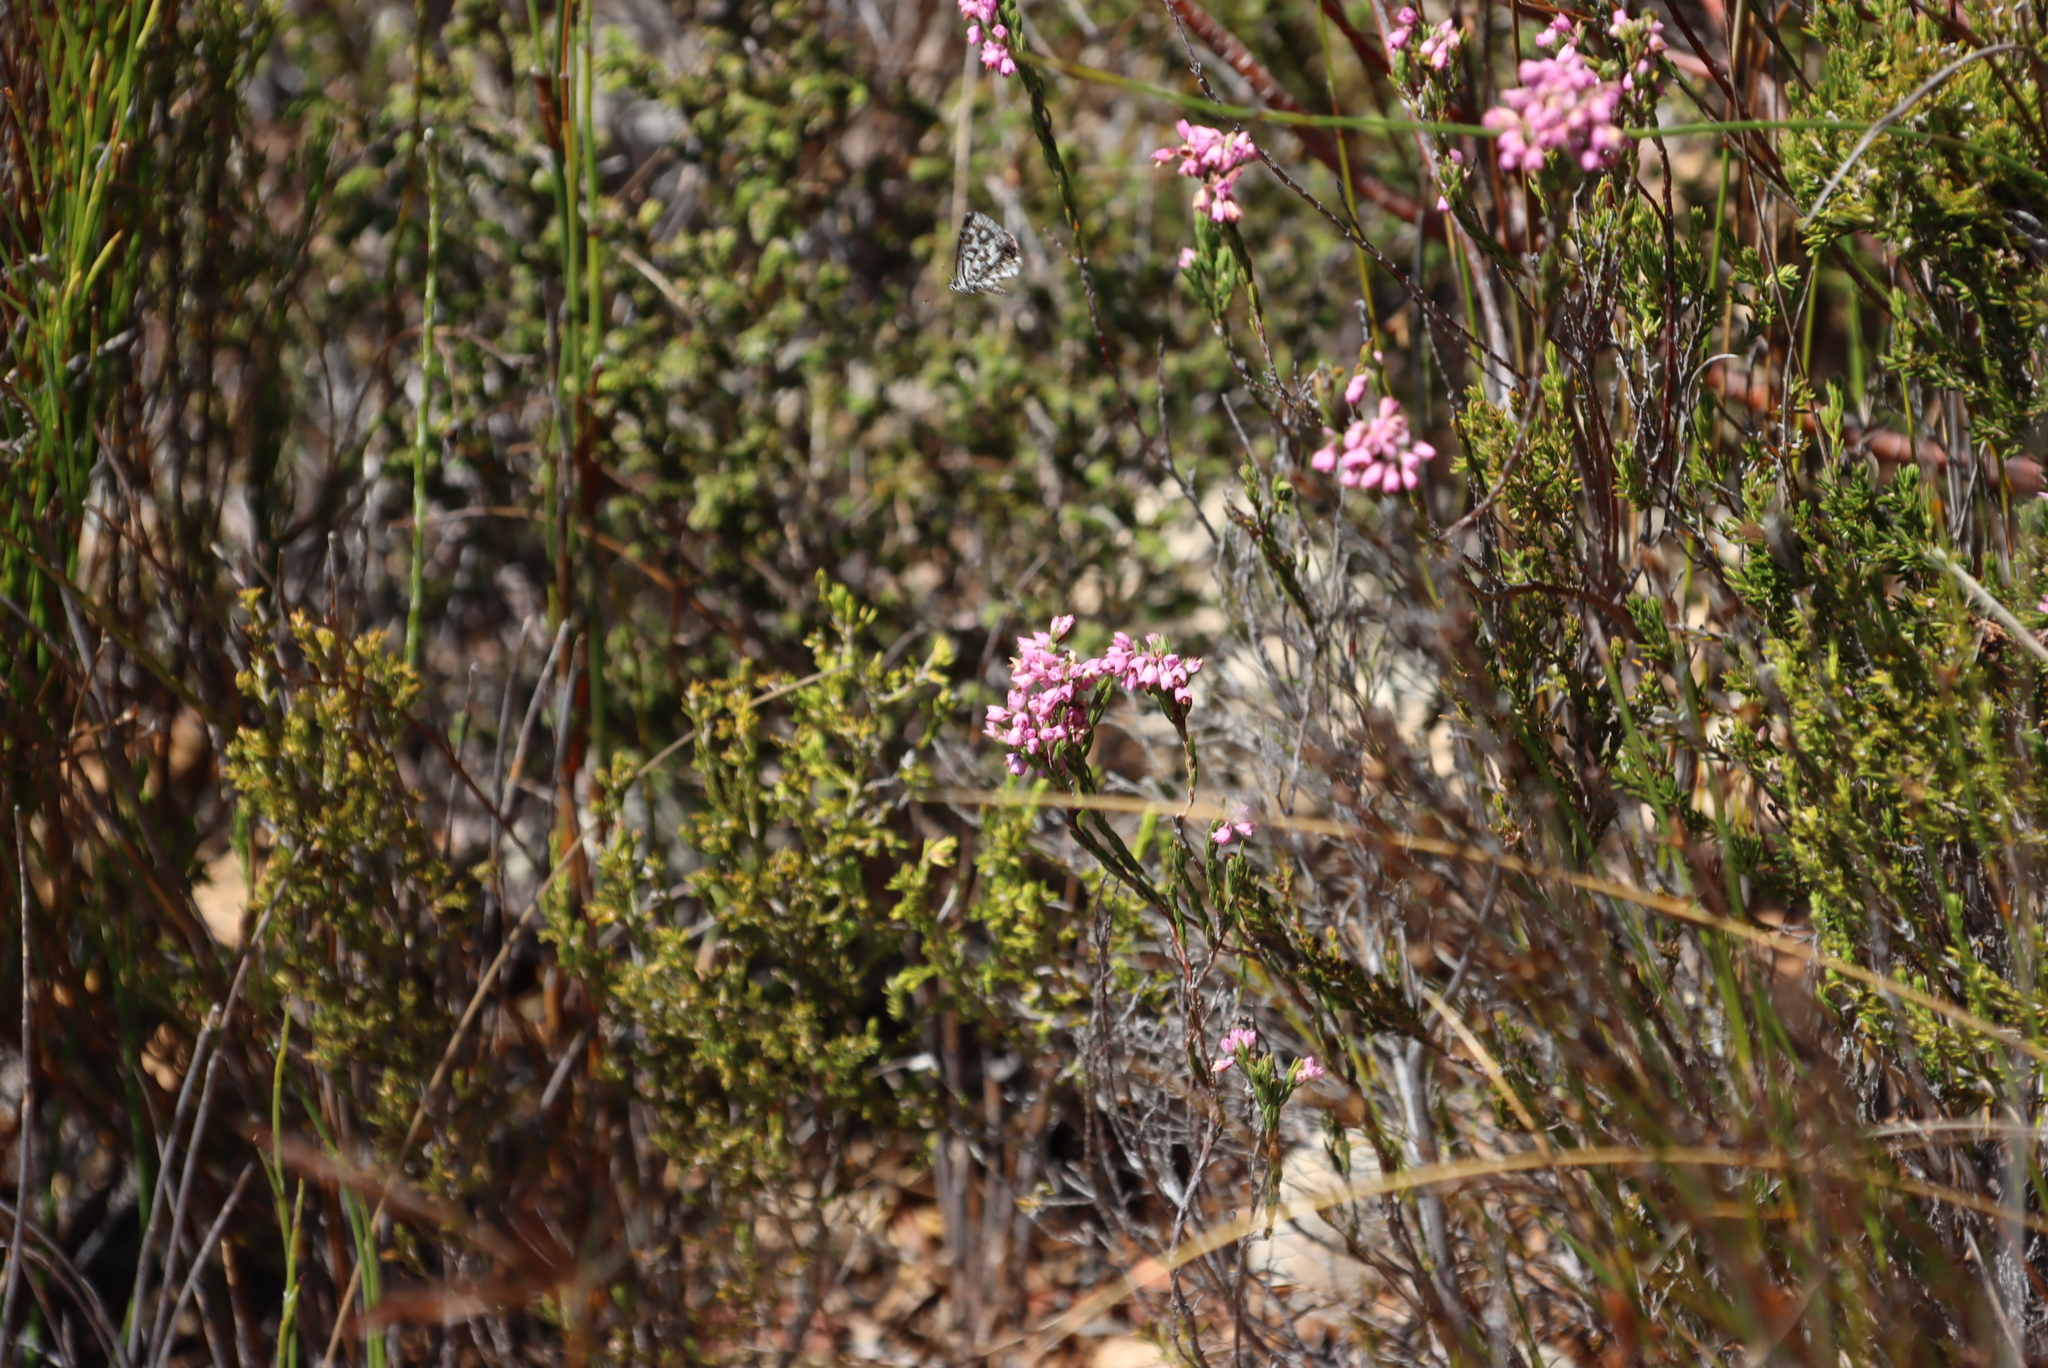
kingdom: Plantae
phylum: Tracheophyta
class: Magnoliopsida
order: Ericales
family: Ericaceae
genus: Erica
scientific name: Erica corifolia
